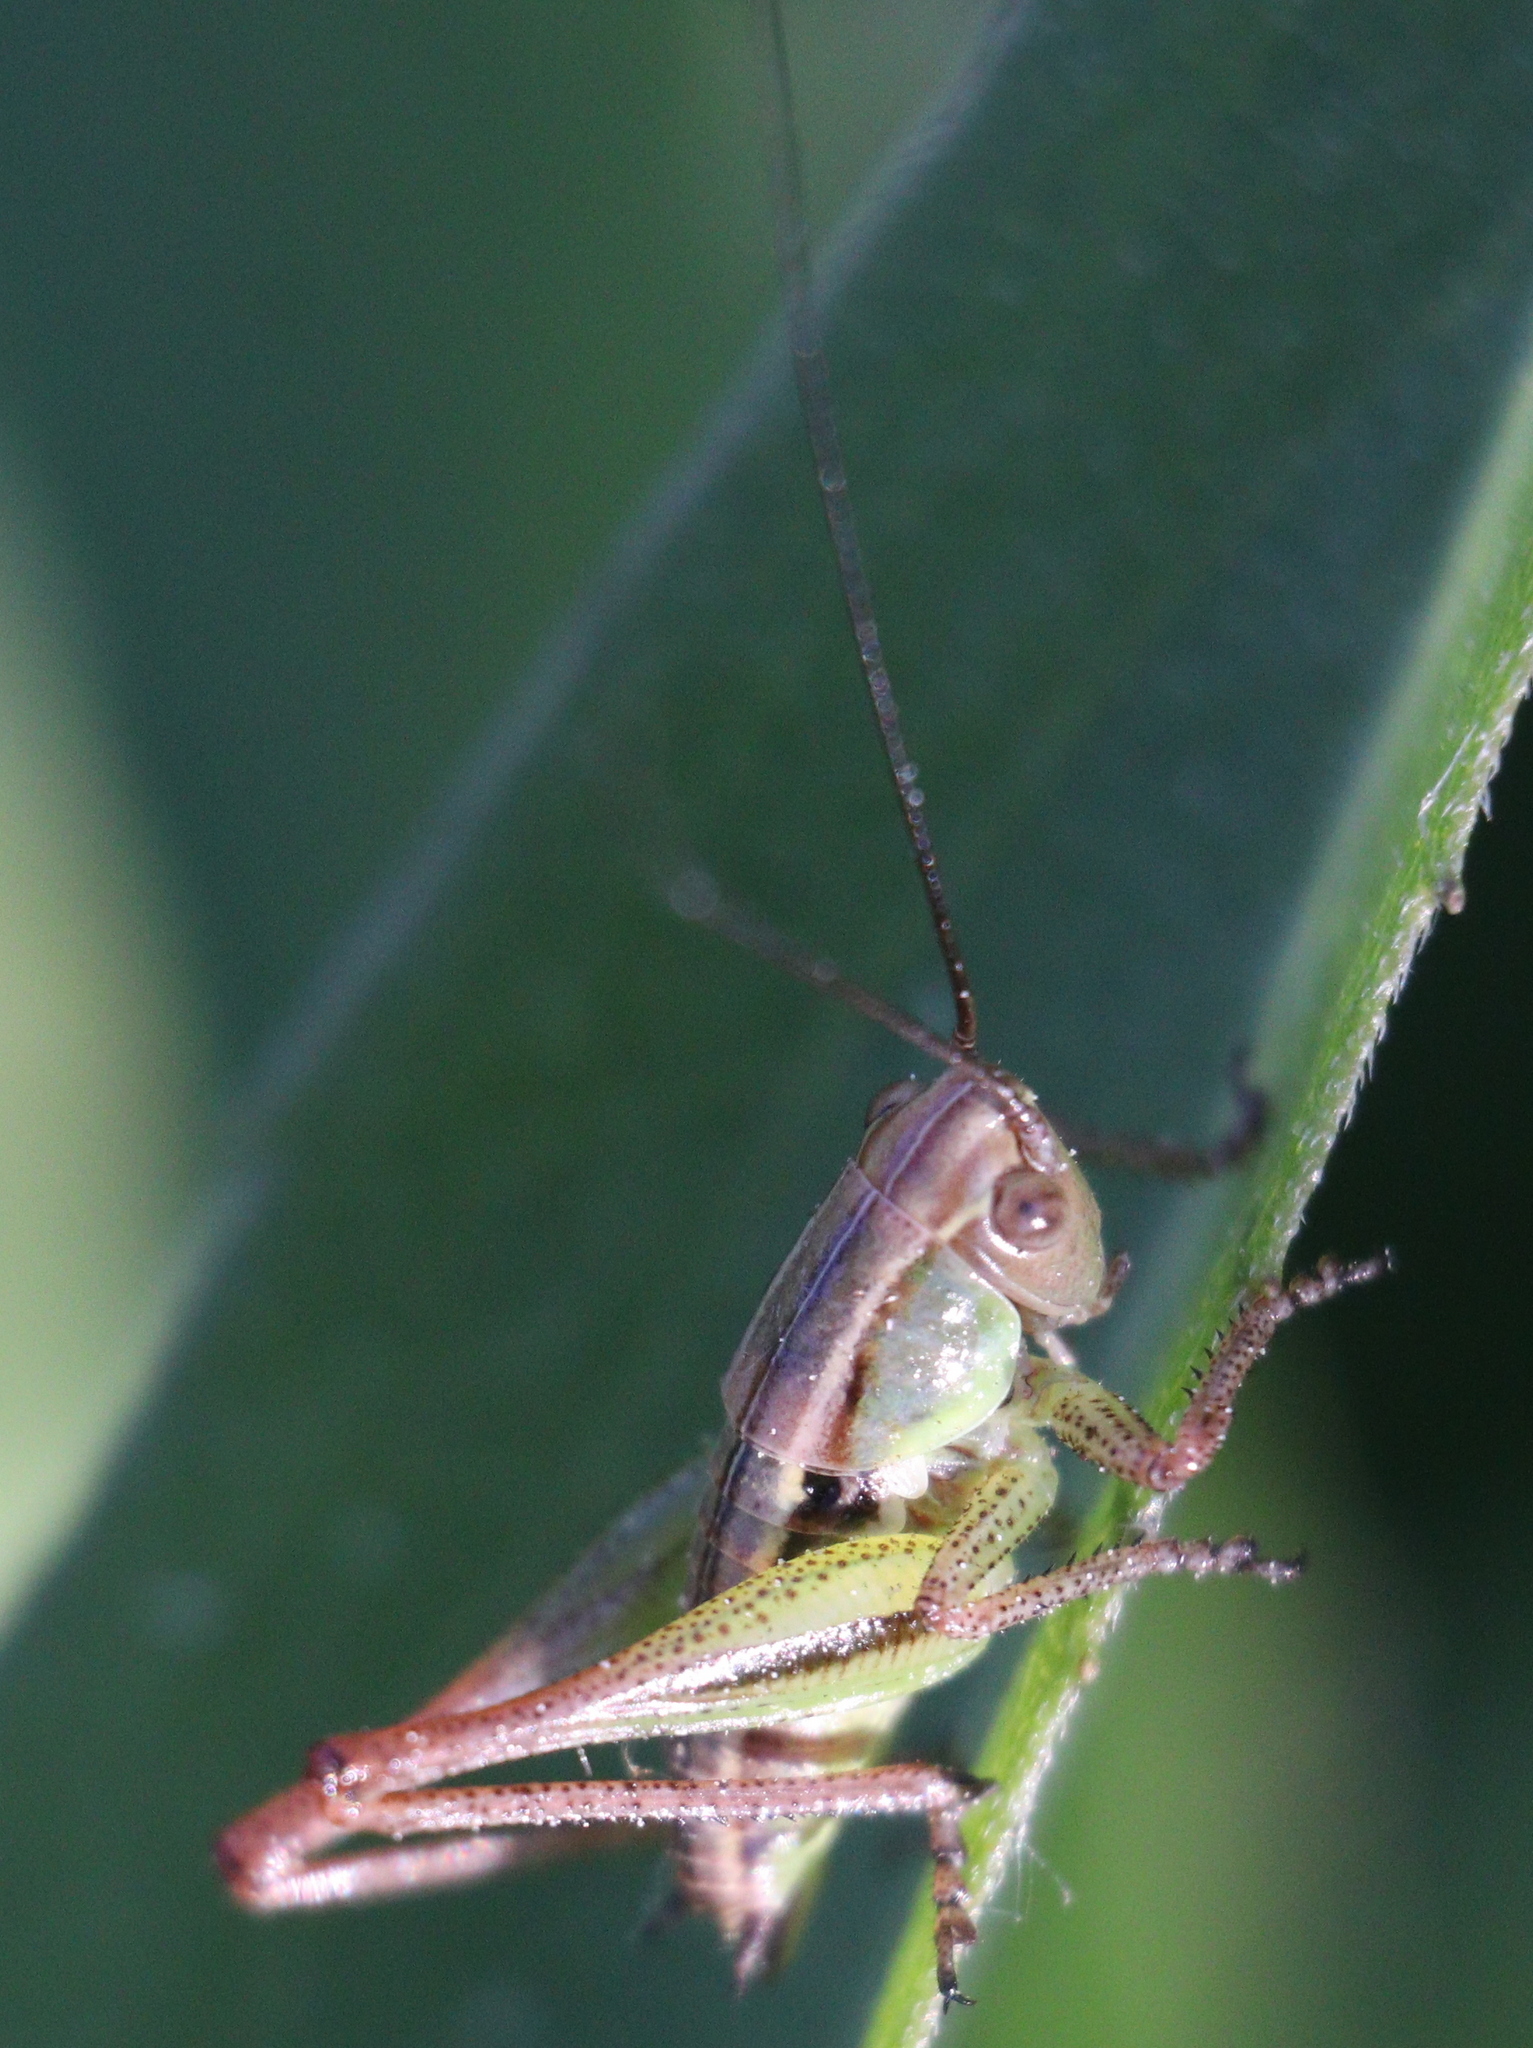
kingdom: Animalia
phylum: Arthropoda
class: Insecta
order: Orthoptera
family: Tettigoniidae
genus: Roeseliana
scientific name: Roeseliana roeselii
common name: Roesel's bush cricket
